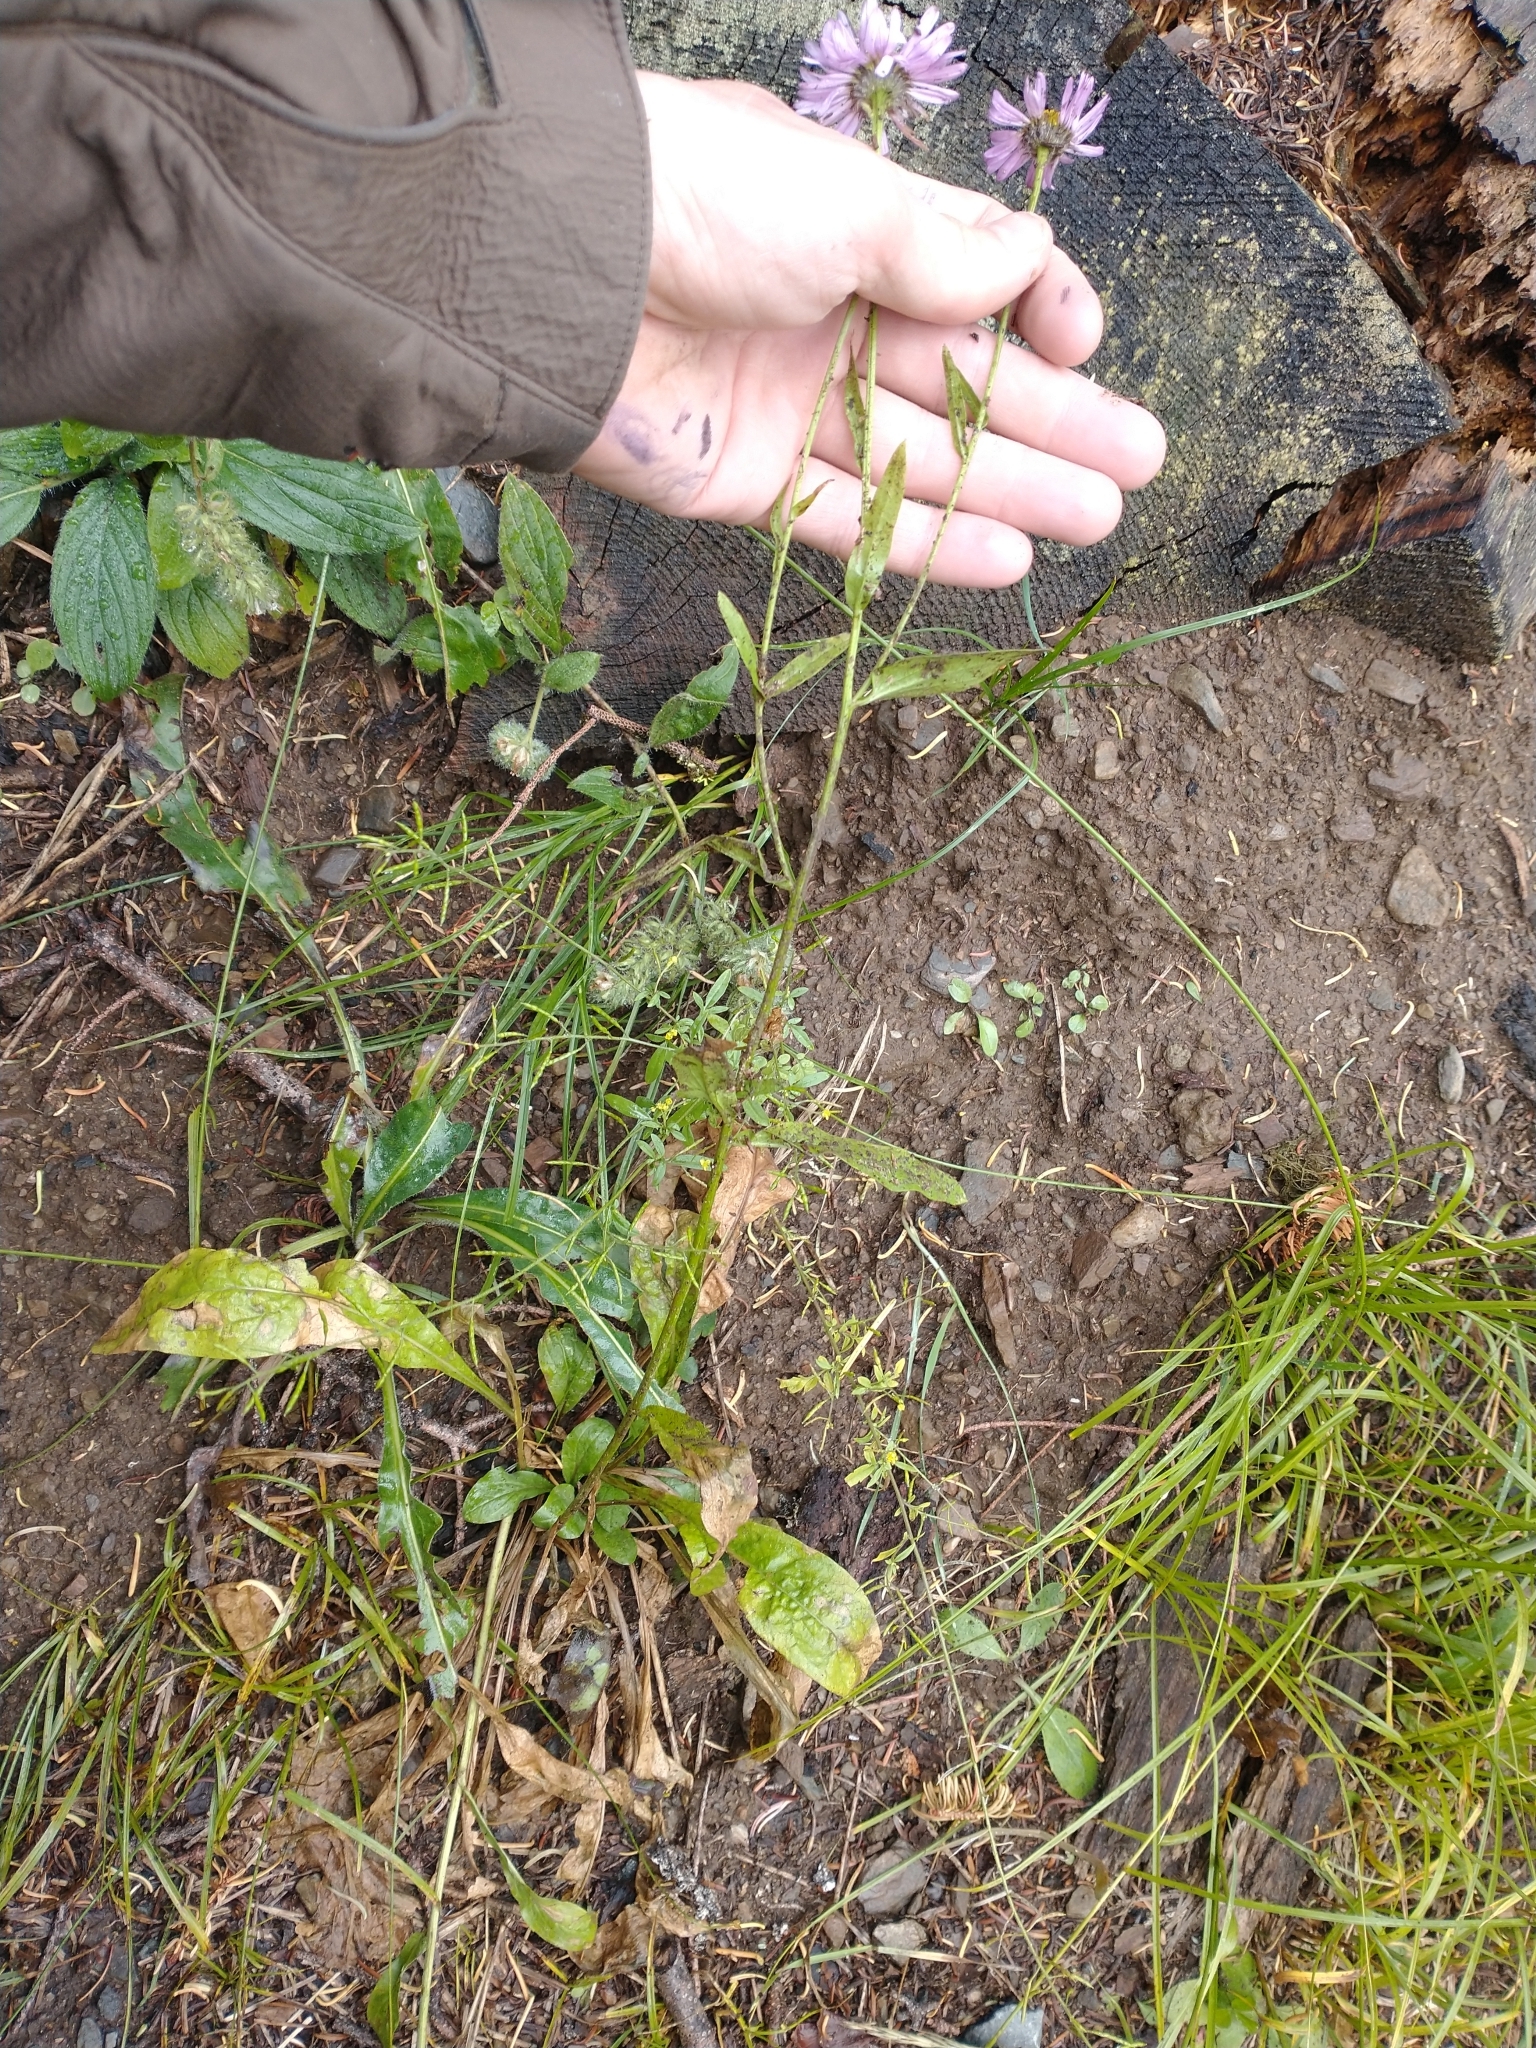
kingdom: Plantae
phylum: Tracheophyta
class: Magnoliopsida
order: Asterales
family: Asteraceae
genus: Erigeron
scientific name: Erigeron aliceae
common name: Alice eastwood's fleabane
